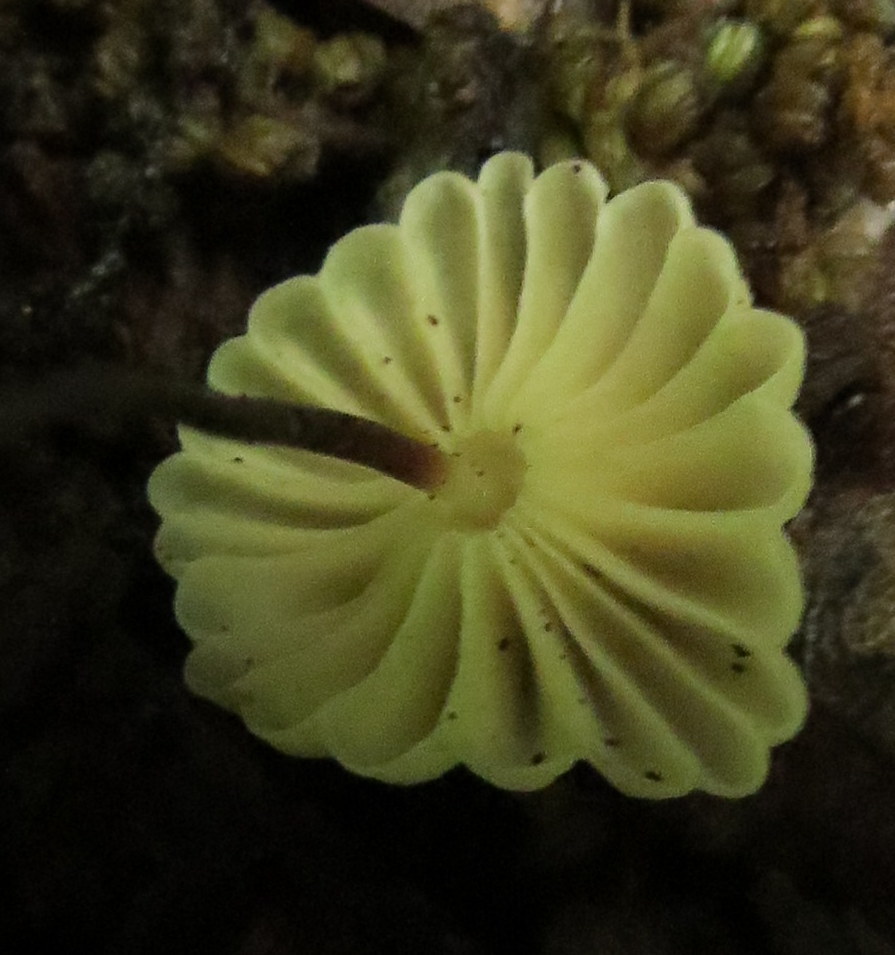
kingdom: Fungi
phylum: Basidiomycota
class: Agaricomycetes
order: Agaricales
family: Marasmiaceae
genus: Marasmius
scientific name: Marasmius rotula
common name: Collared parachute
